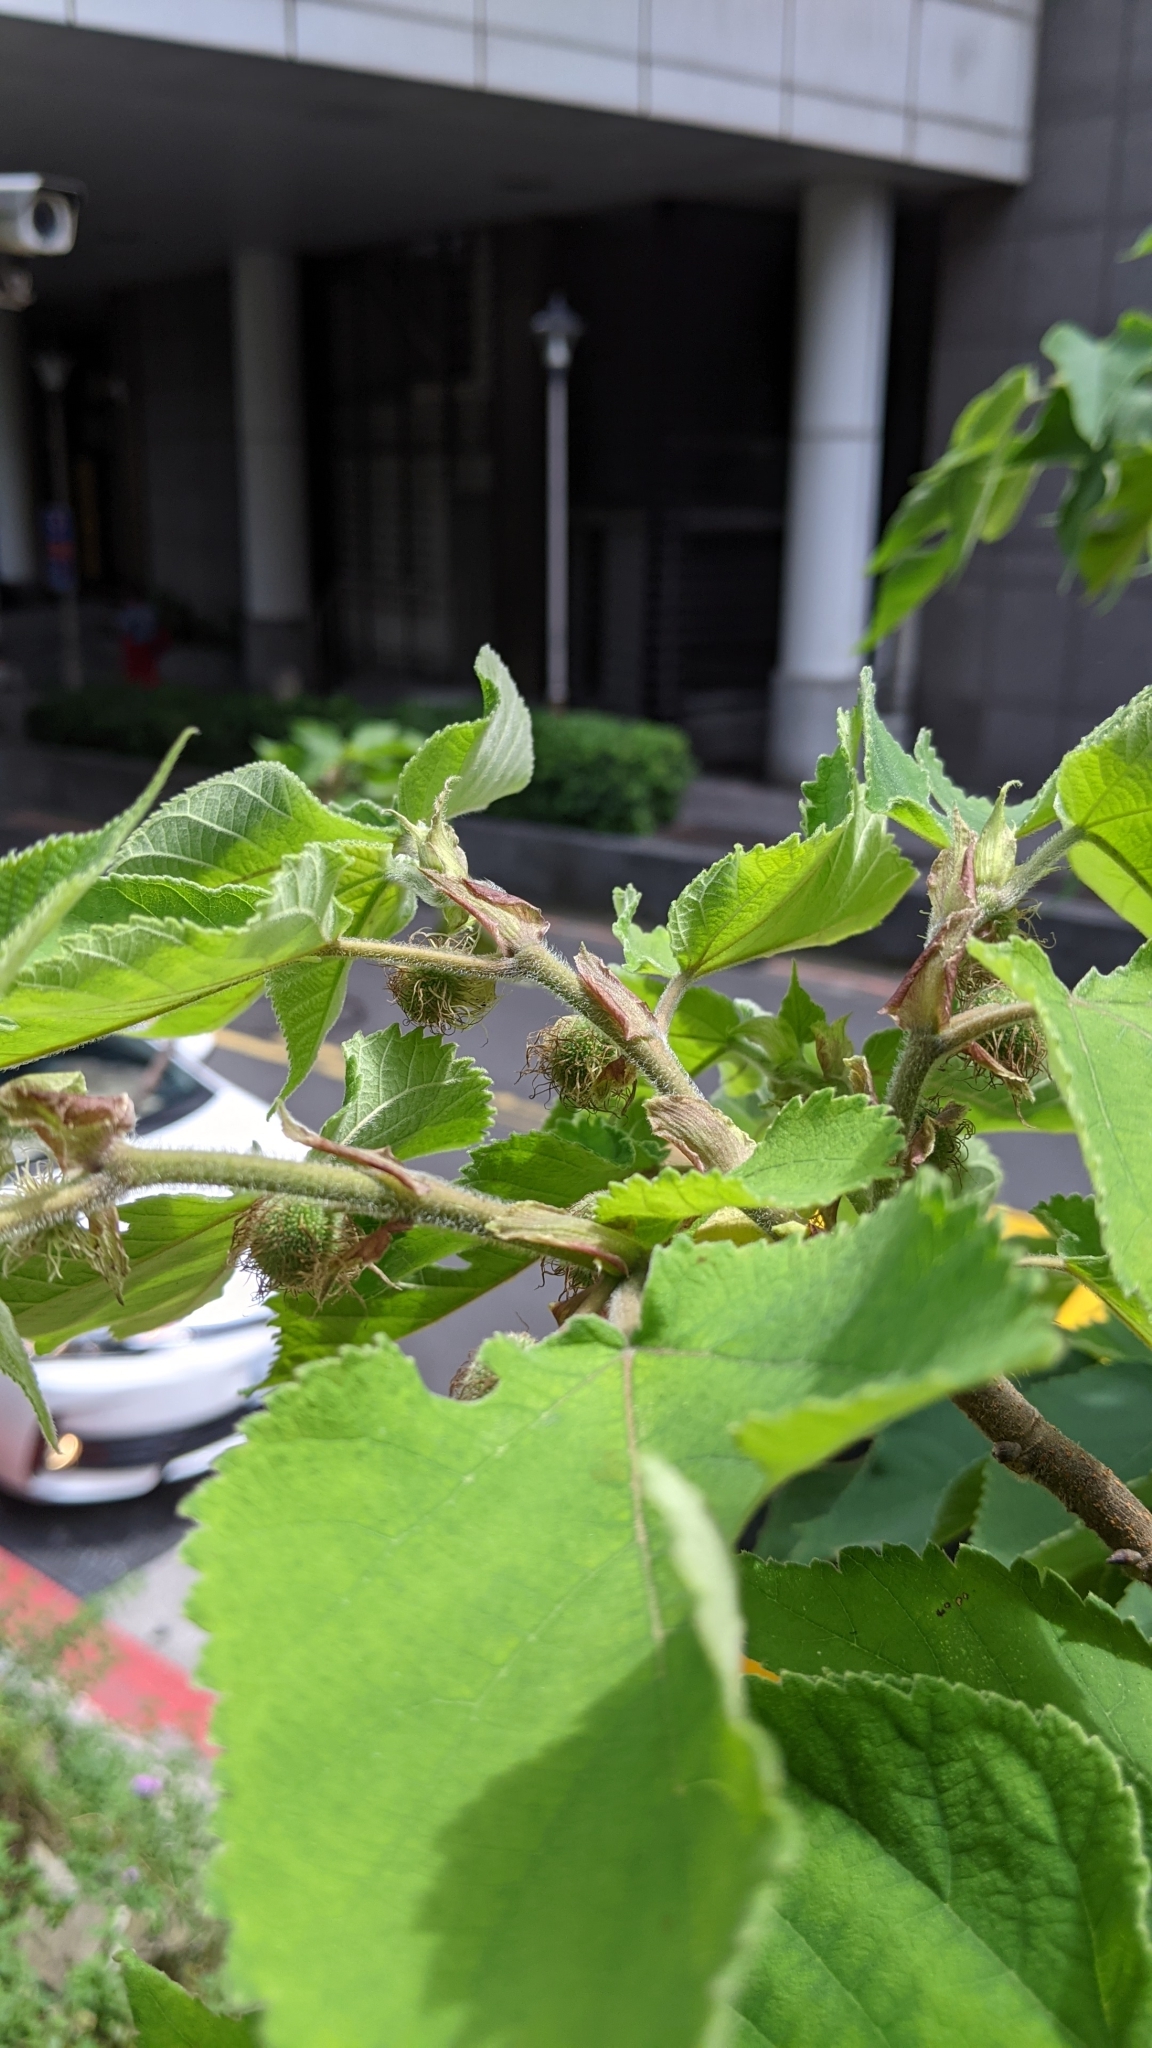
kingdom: Plantae
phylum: Tracheophyta
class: Magnoliopsida
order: Rosales
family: Moraceae
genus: Broussonetia
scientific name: Broussonetia papyrifera
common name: Paper mulberry
